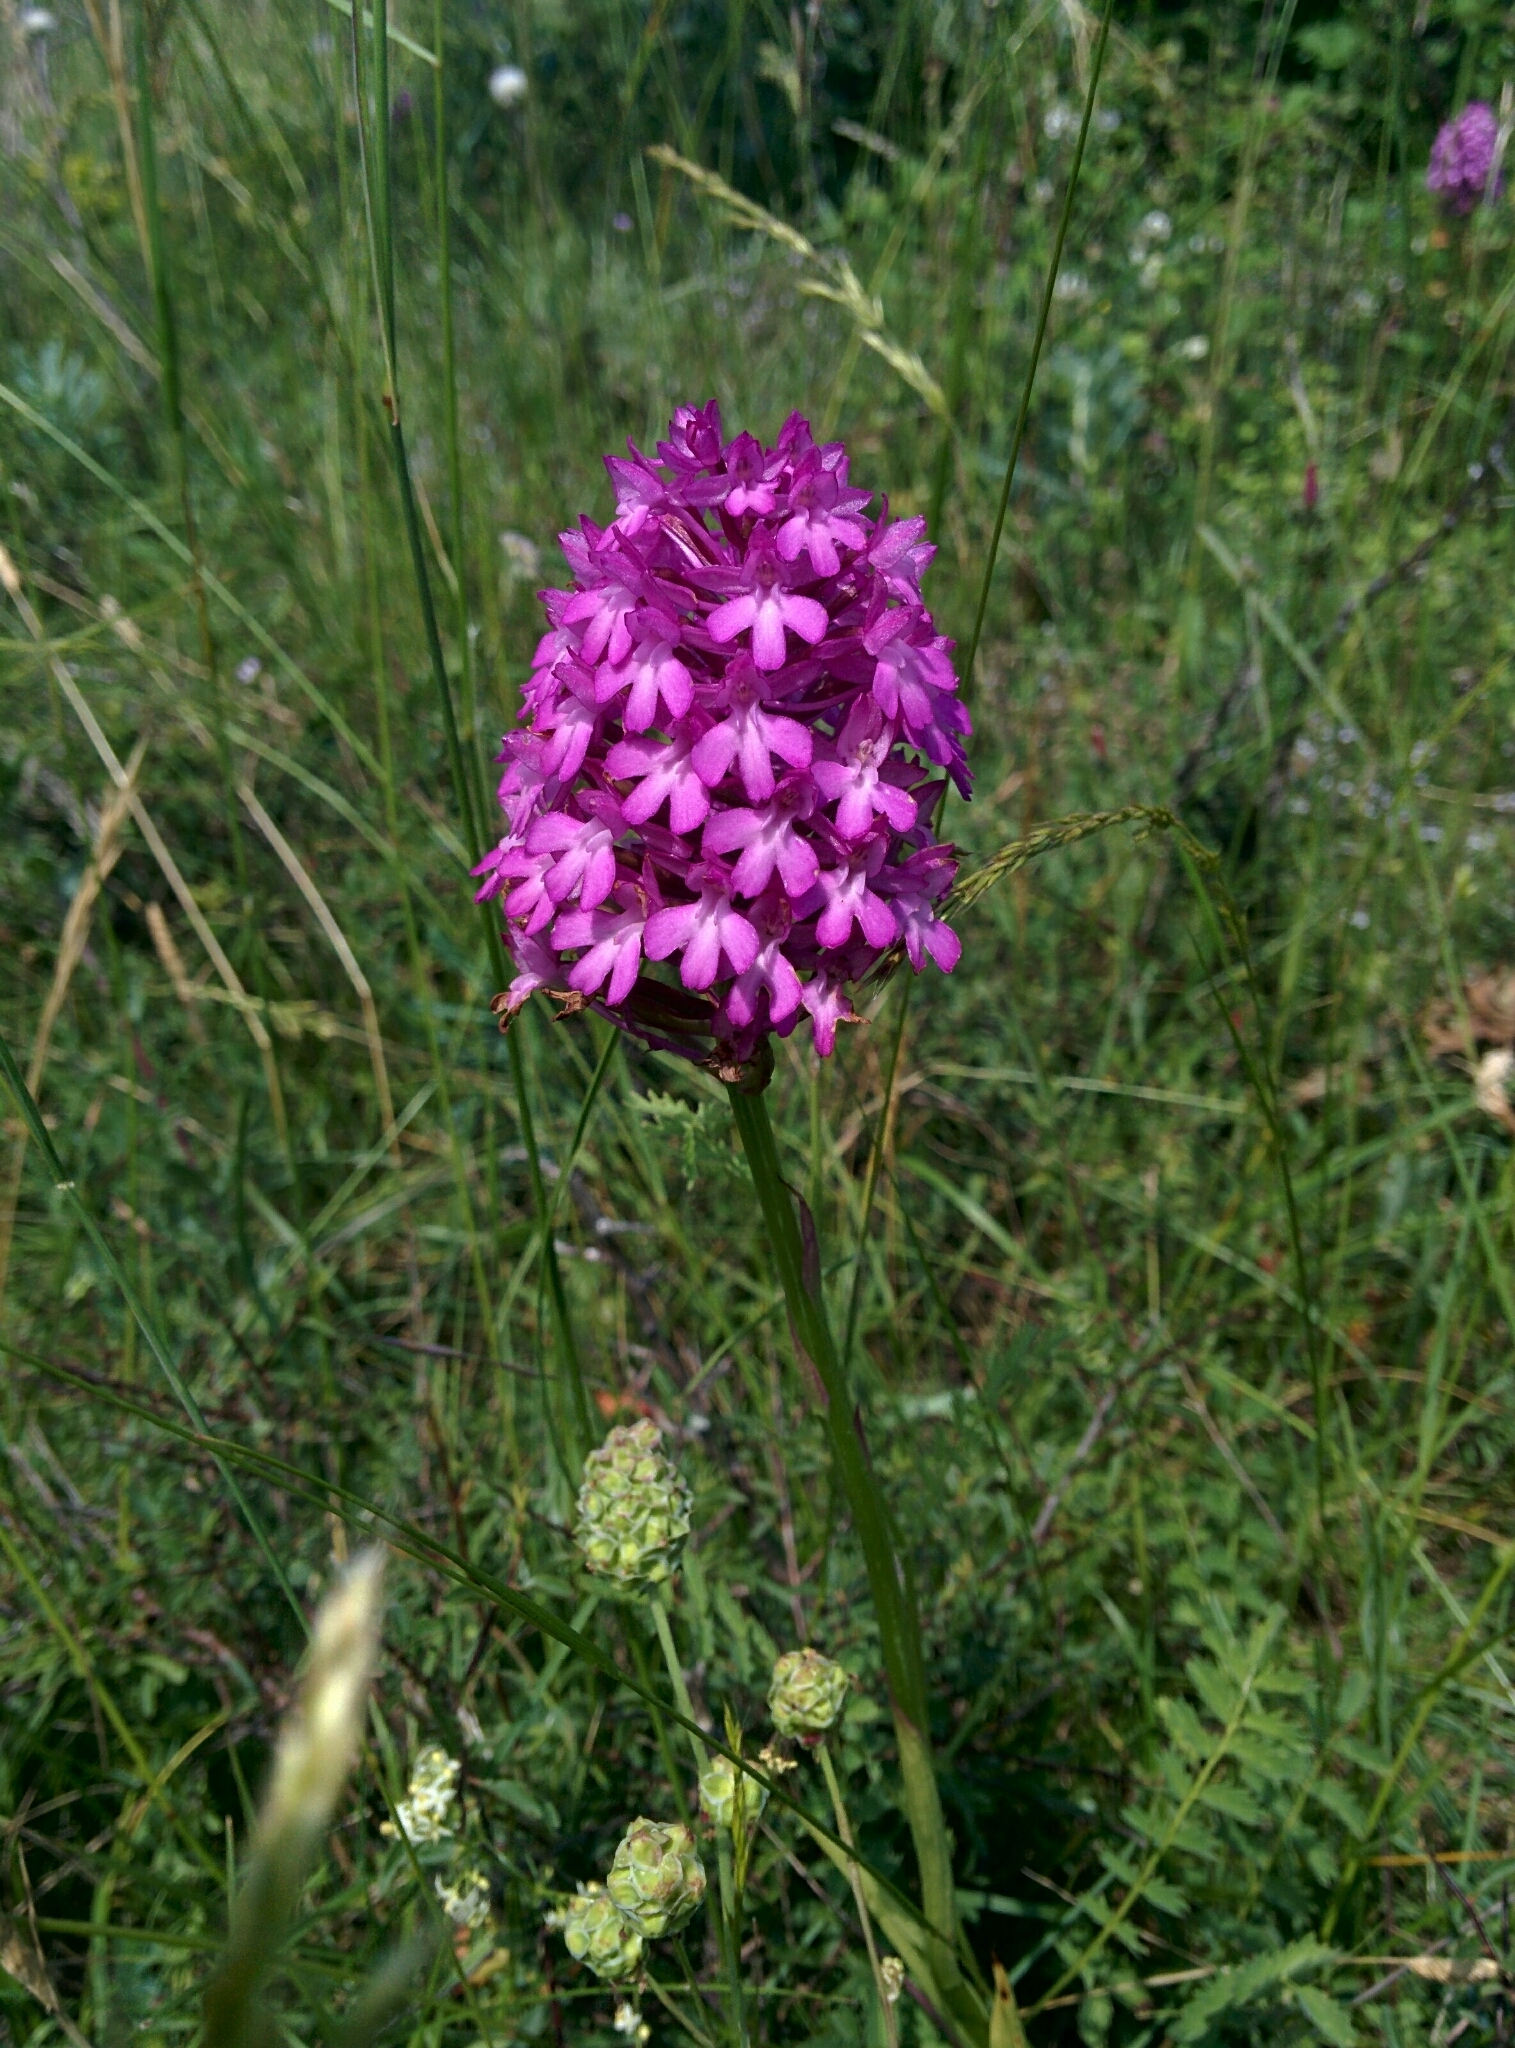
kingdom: Plantae
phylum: Tracheophyta
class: Liliopsida
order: Asparagales
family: Orchidaceae
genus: Anacamptis
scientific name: Anacamptis pyramidalis
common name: Pyramidal orchid
